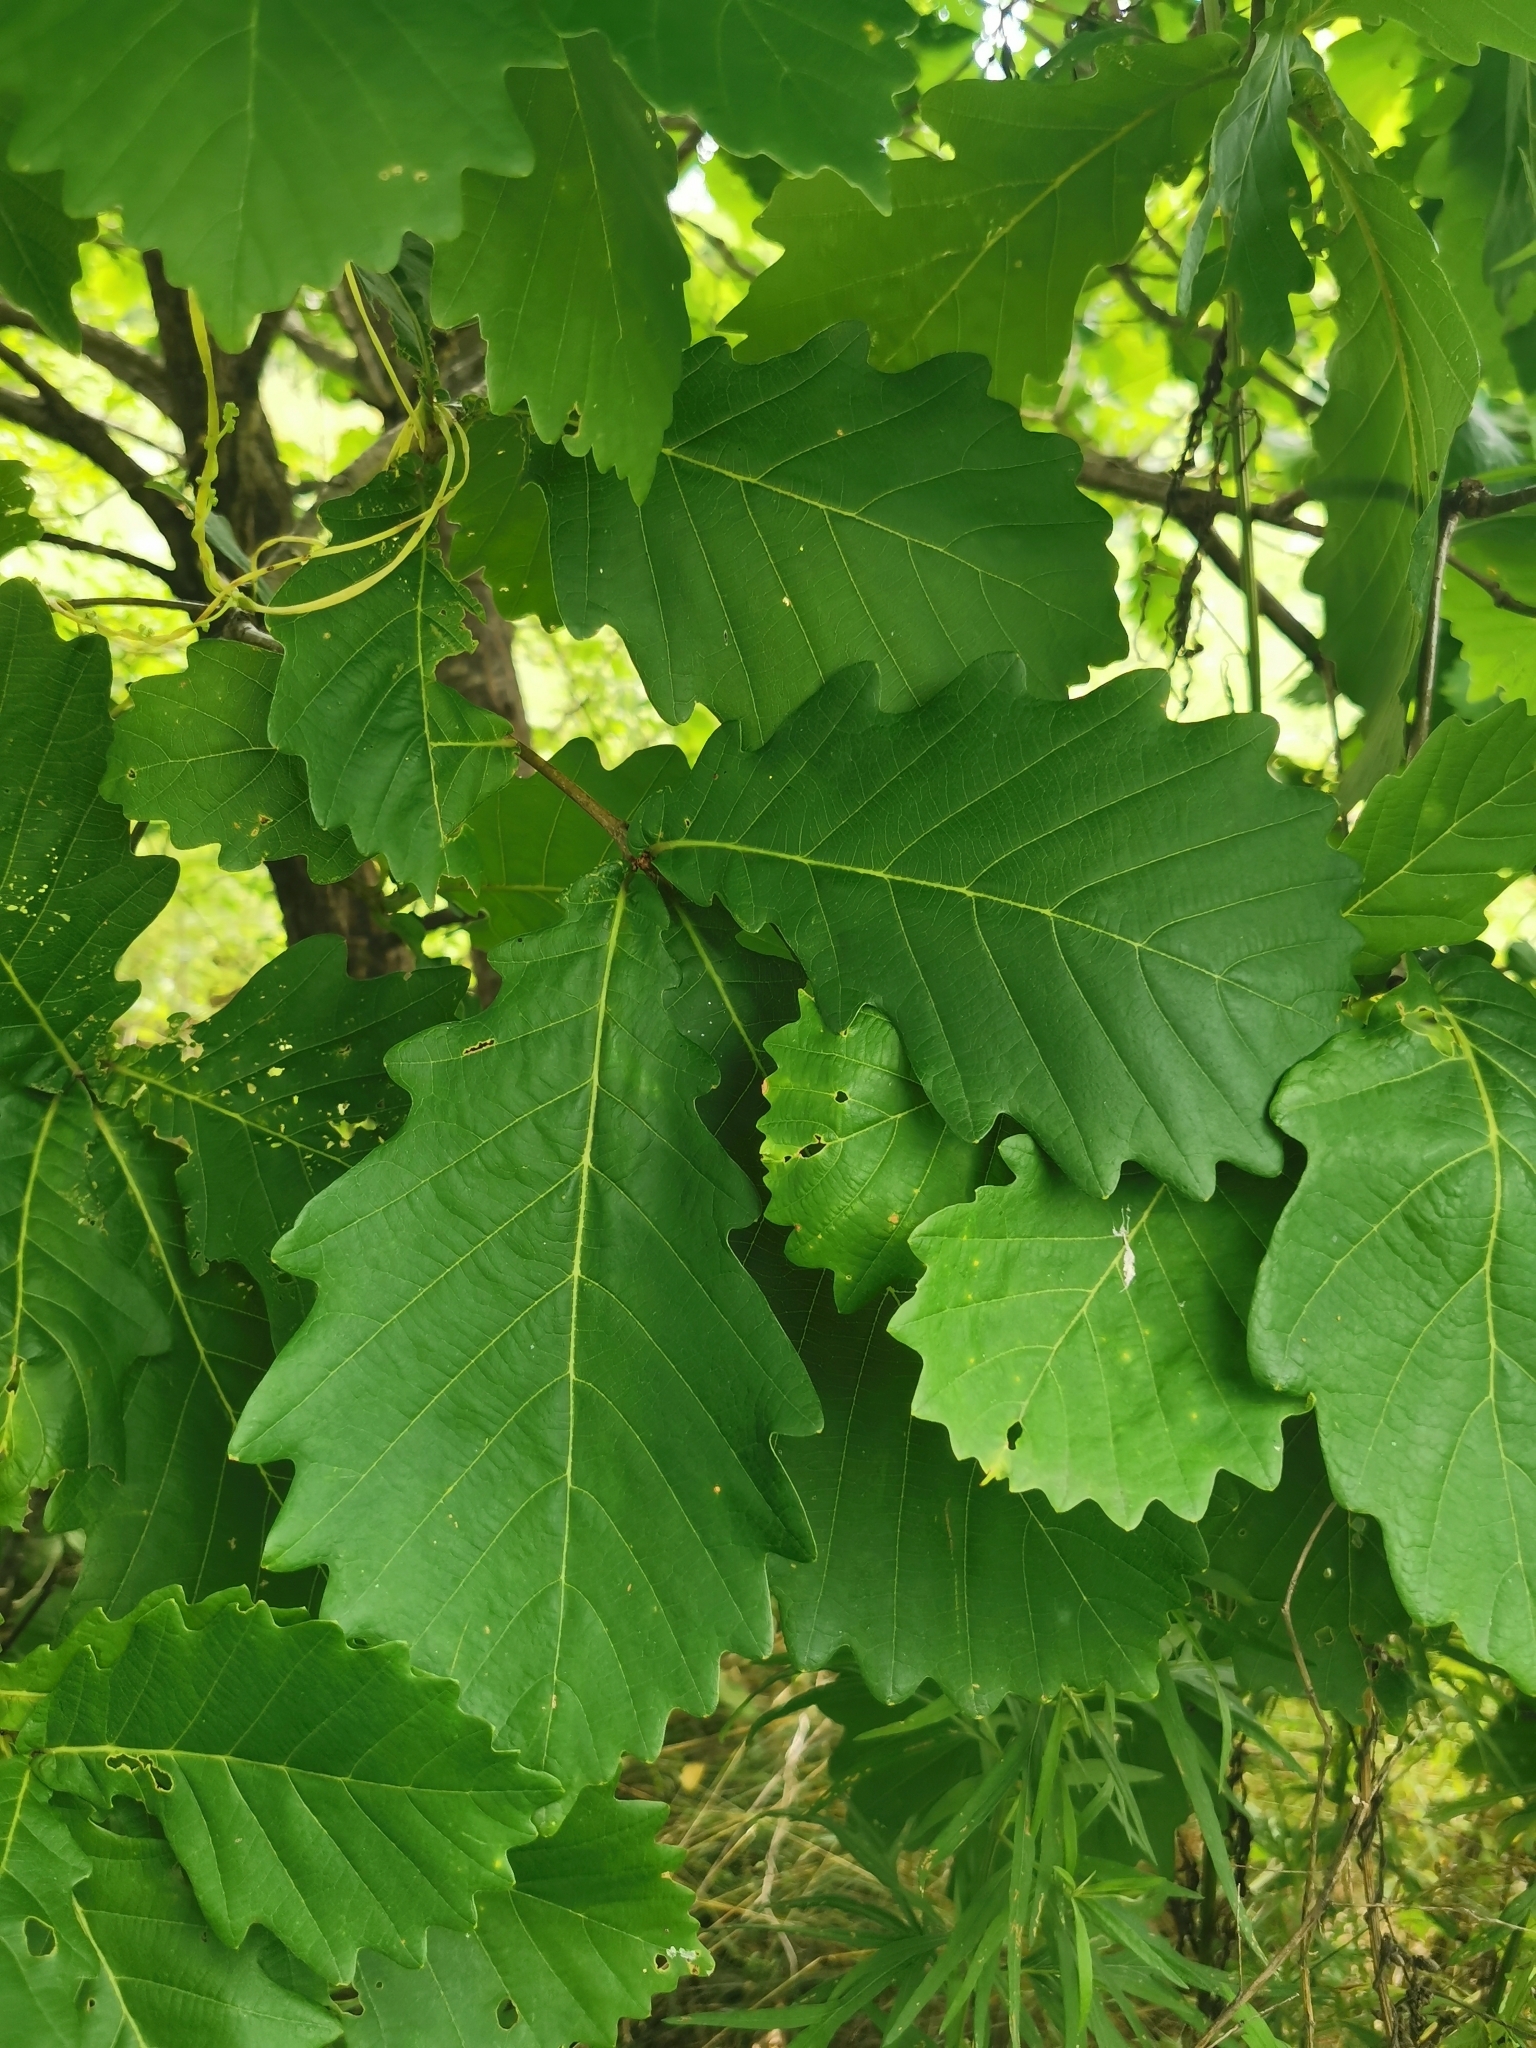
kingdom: Plantae
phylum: Tracheophyta
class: Magnoliopsida
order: Fagales
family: Fagaceae
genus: Quercus
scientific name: Quercus mongolica
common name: Mongolian oak
